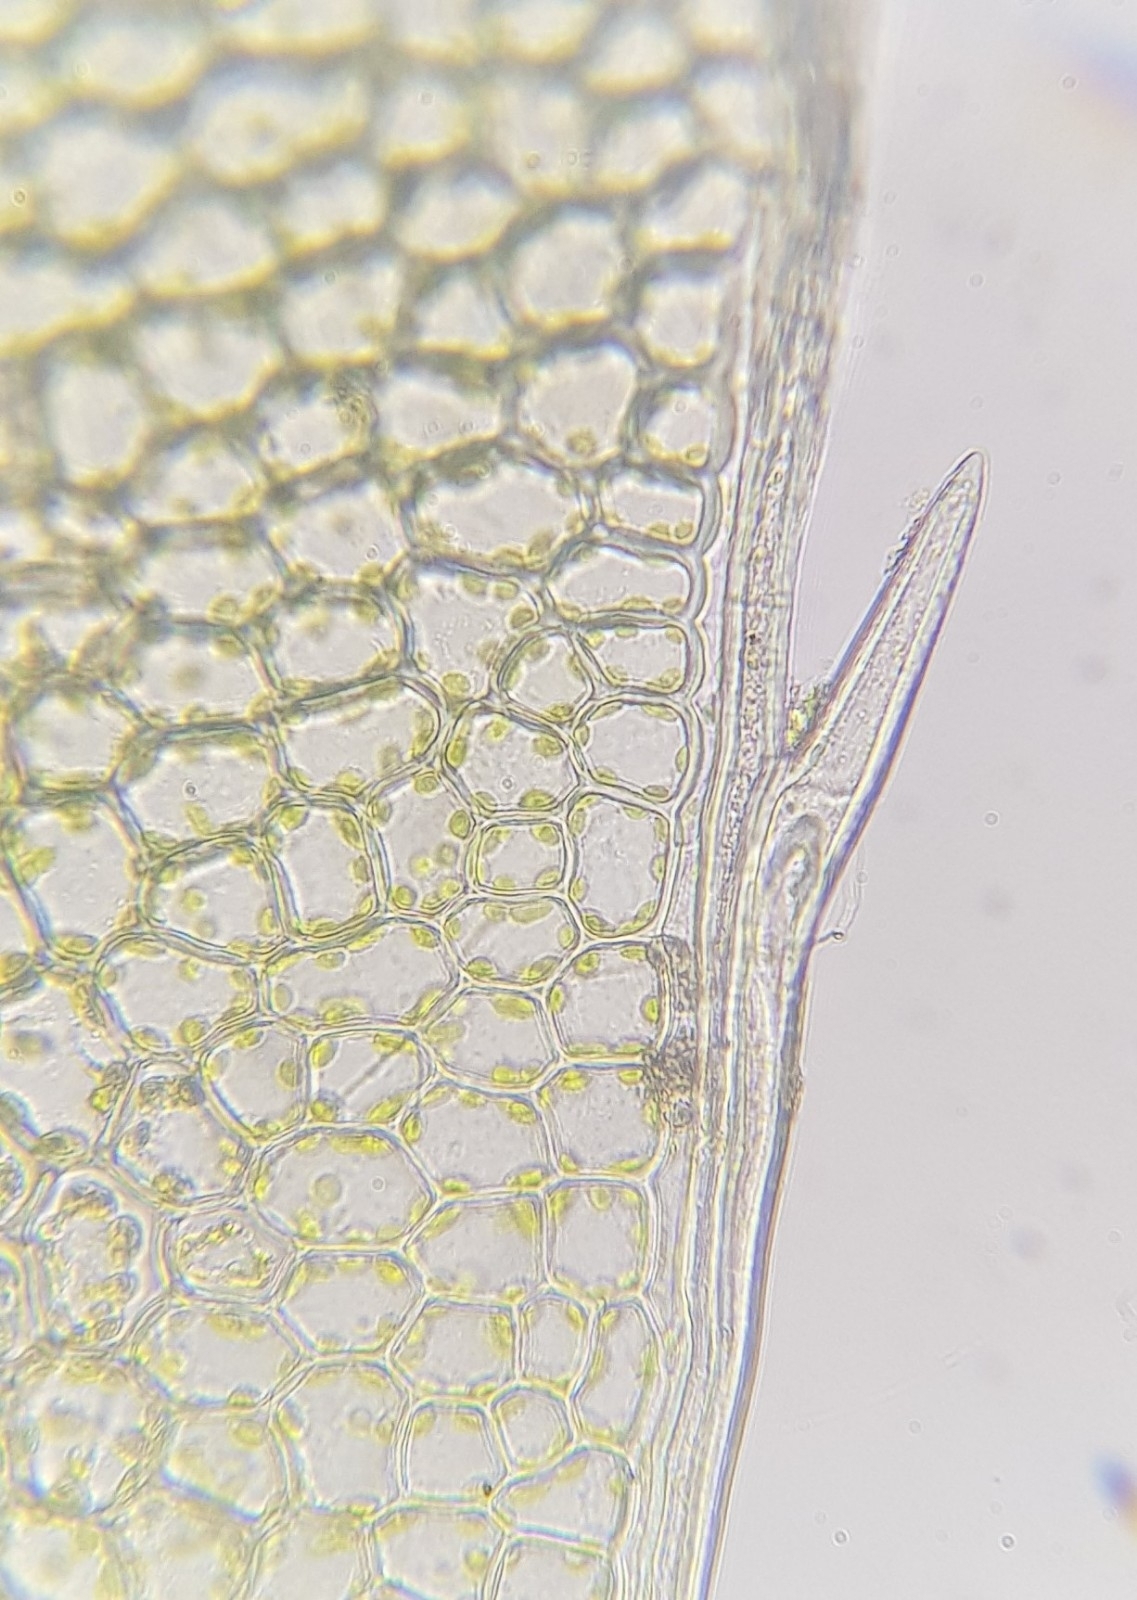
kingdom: Plantae
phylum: Bryophyta
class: Polytrichopsida
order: Polytrichales
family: Polytrichaceae
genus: Atrichum
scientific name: Atrichum crispum
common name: Fountain smoothcap
